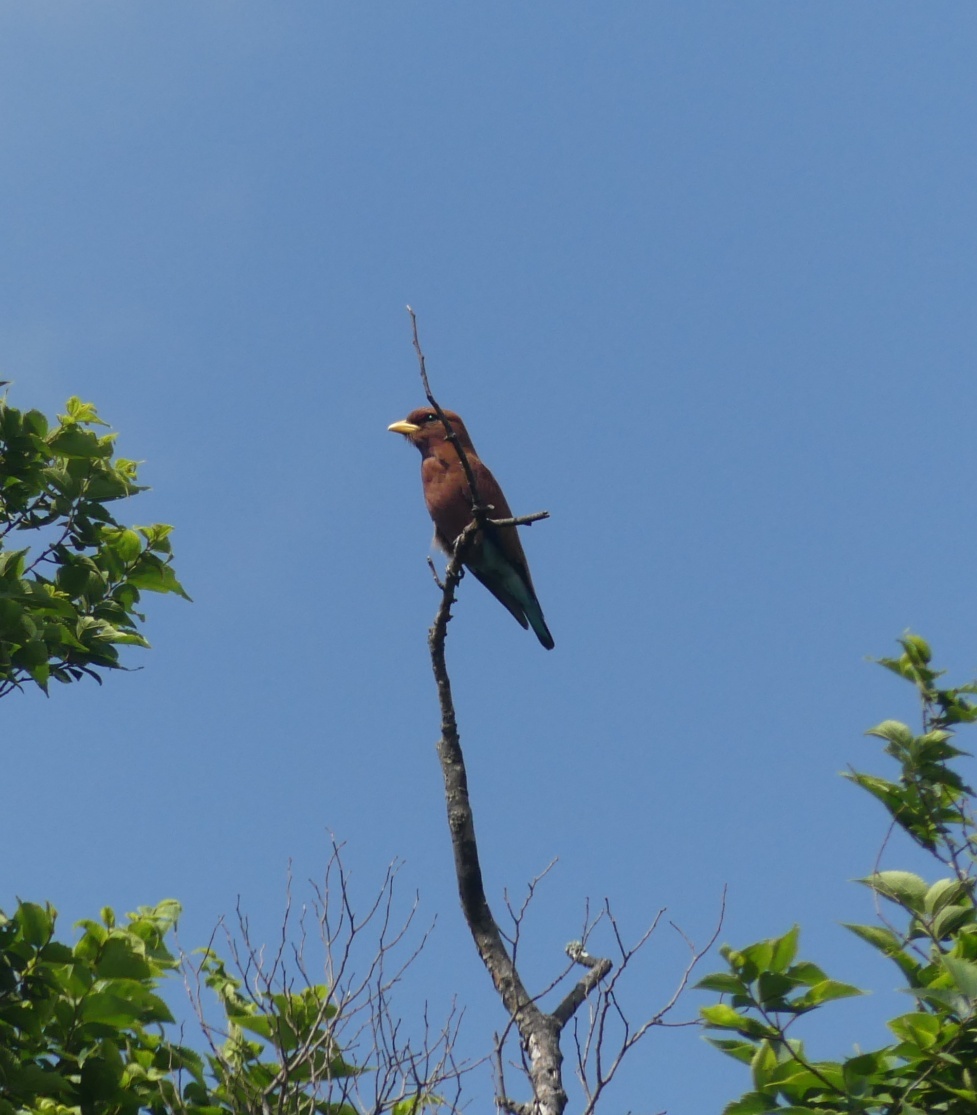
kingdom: Animalia
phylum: Chordata
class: Aves
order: Coraciiformes
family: Coraciidae
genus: Eurystomus
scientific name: Eurystomus glaucurus
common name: Broad-billed roller
